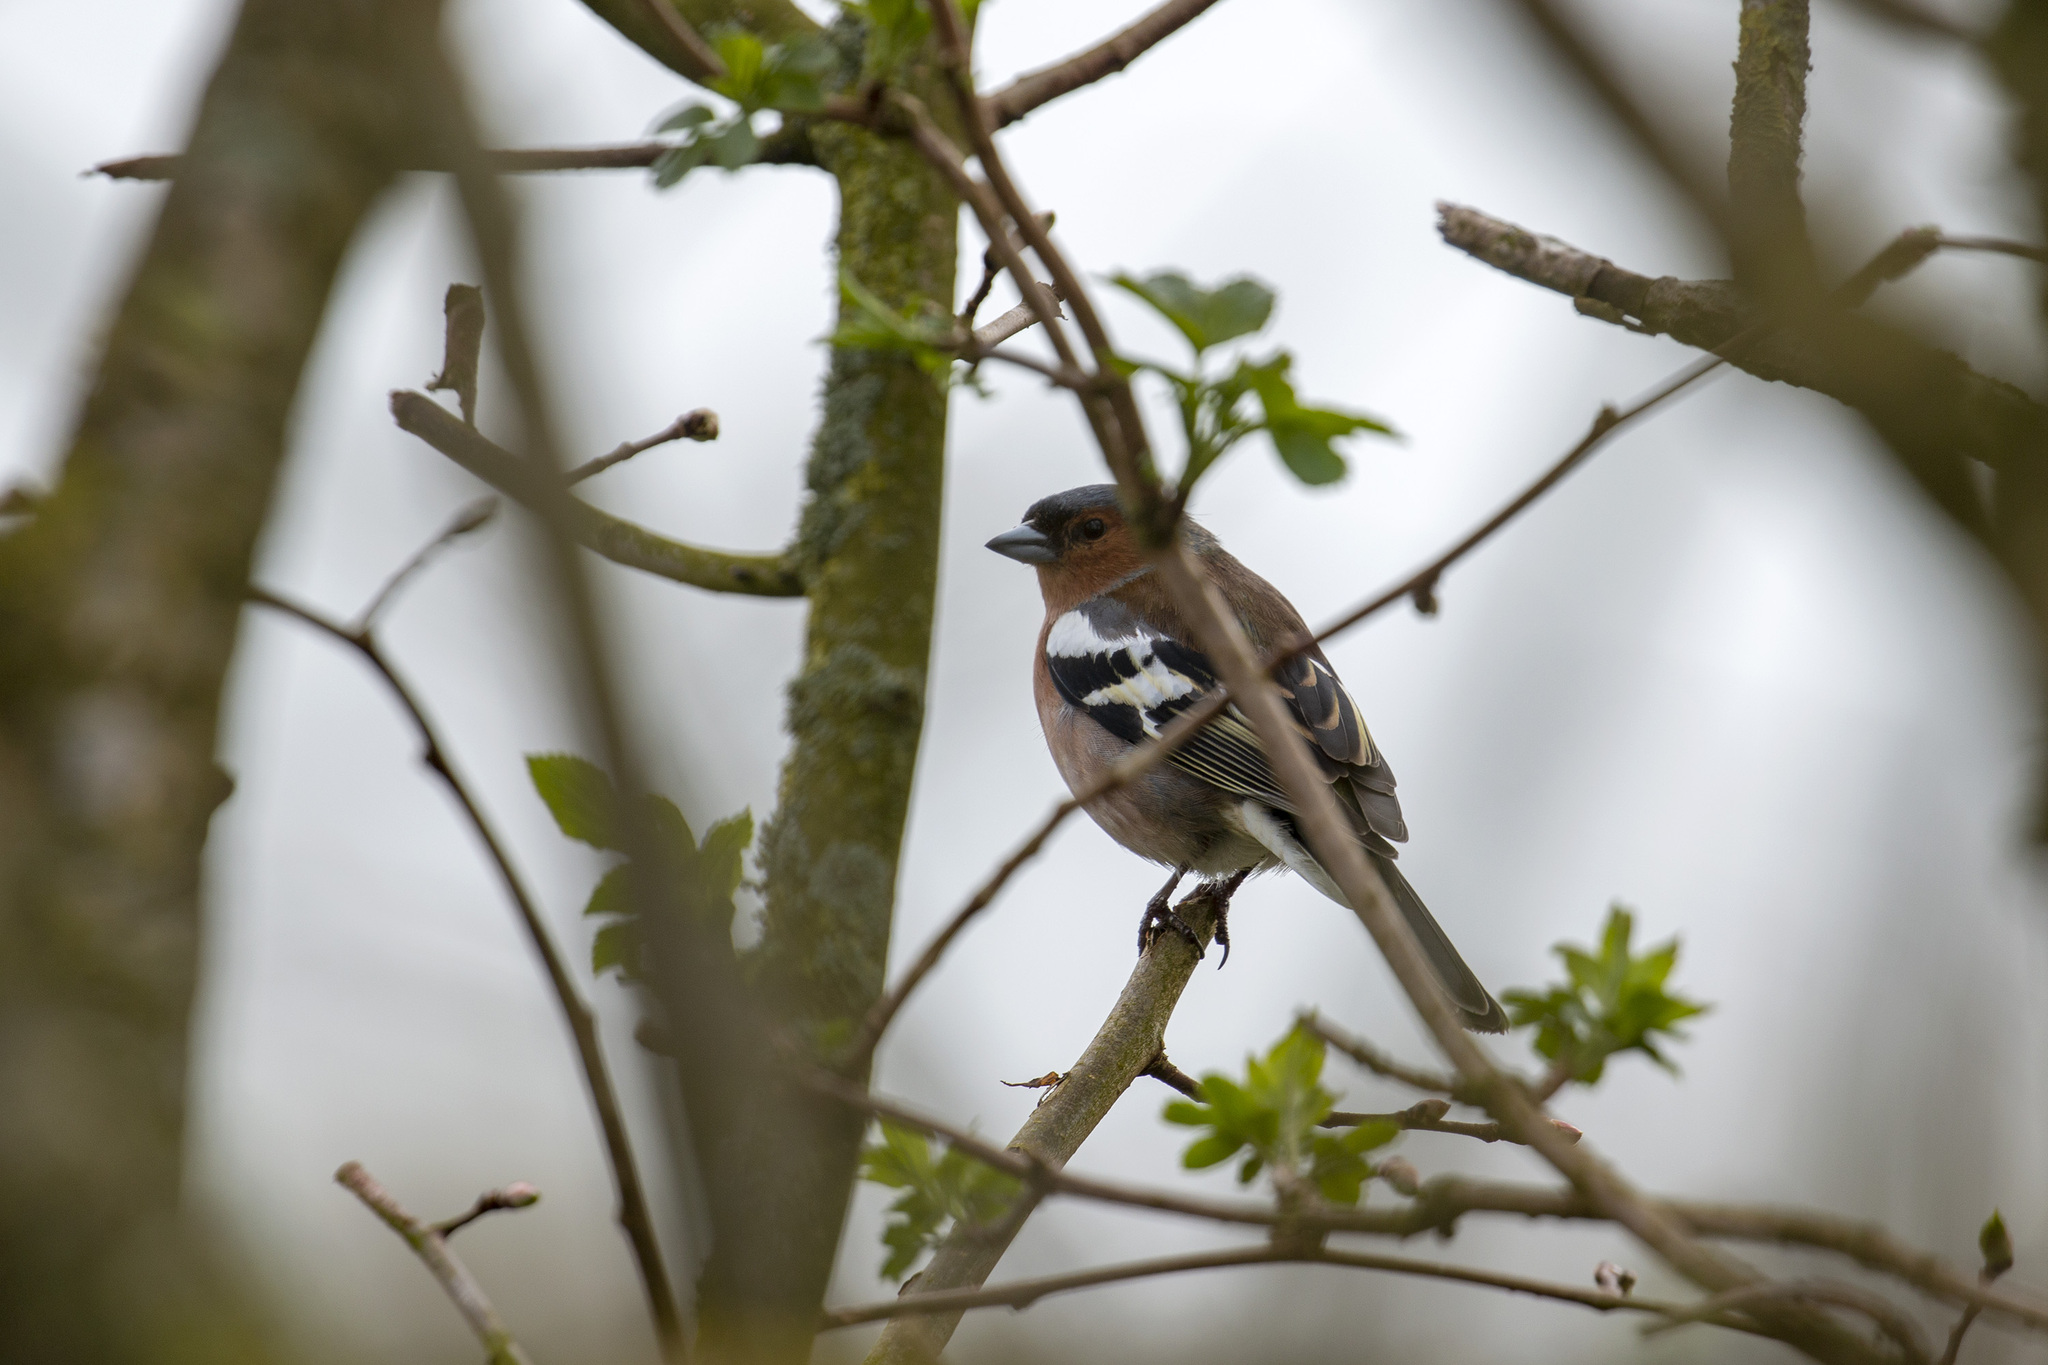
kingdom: Animalia
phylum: Chordata
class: Aves
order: Passeriformes
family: Fringillidae
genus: Fringilla
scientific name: Fringilla coelebs
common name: Common chaffinch
